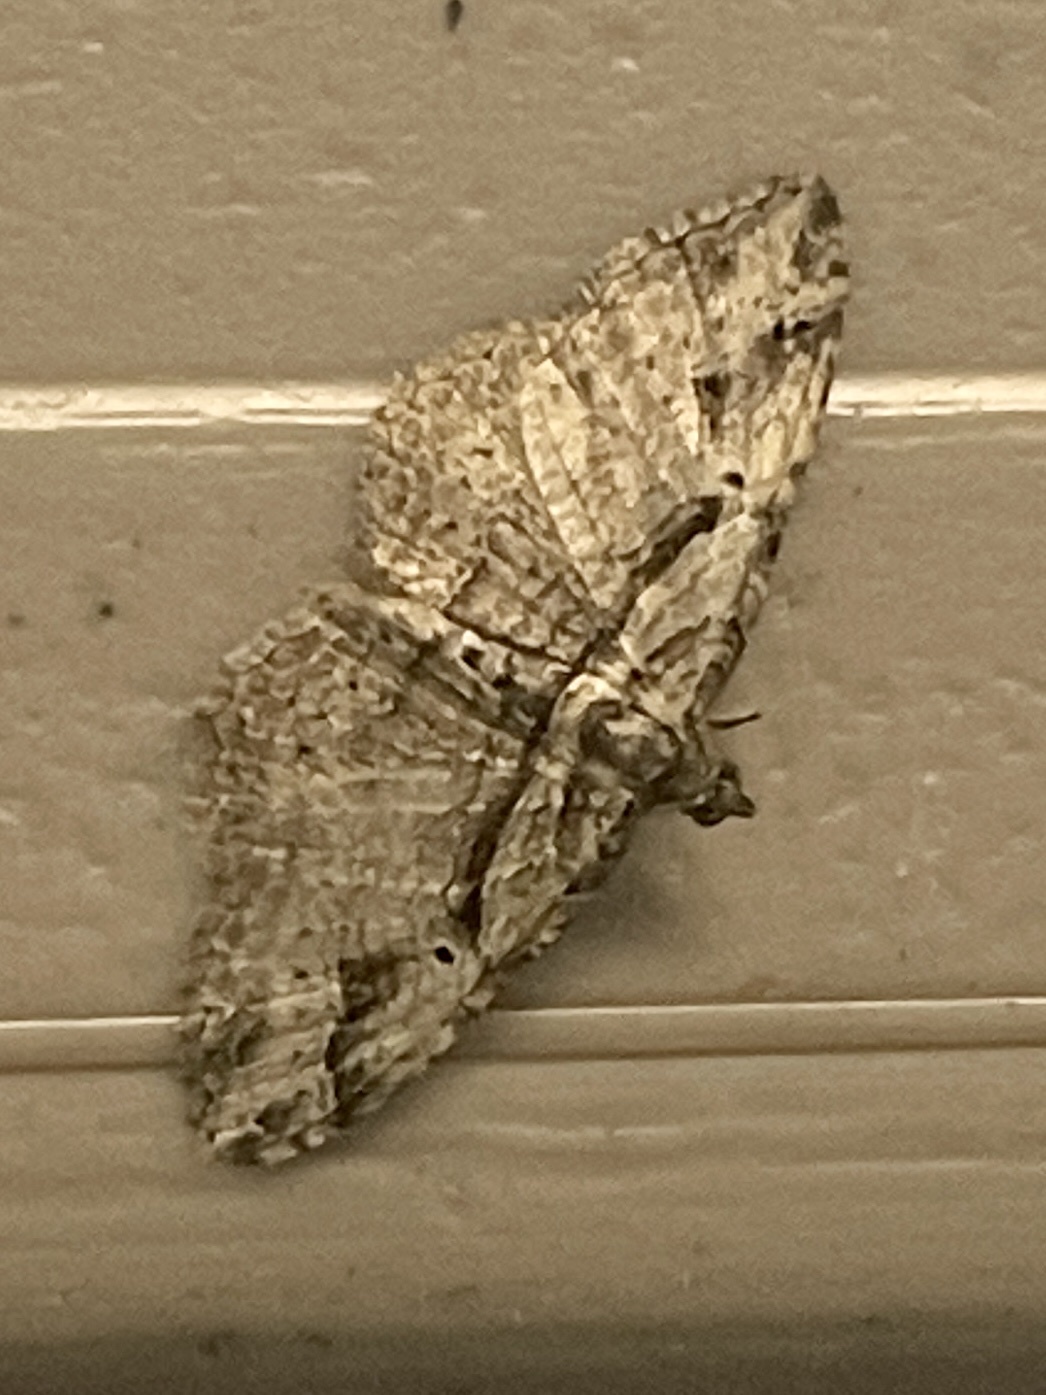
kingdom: Animalia
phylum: Arthropoda
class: Insecta
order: Lepidoptera
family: Geometridae
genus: Costaconvexa
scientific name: Costaconvexa centrostrigaria
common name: Bent-line carpet
